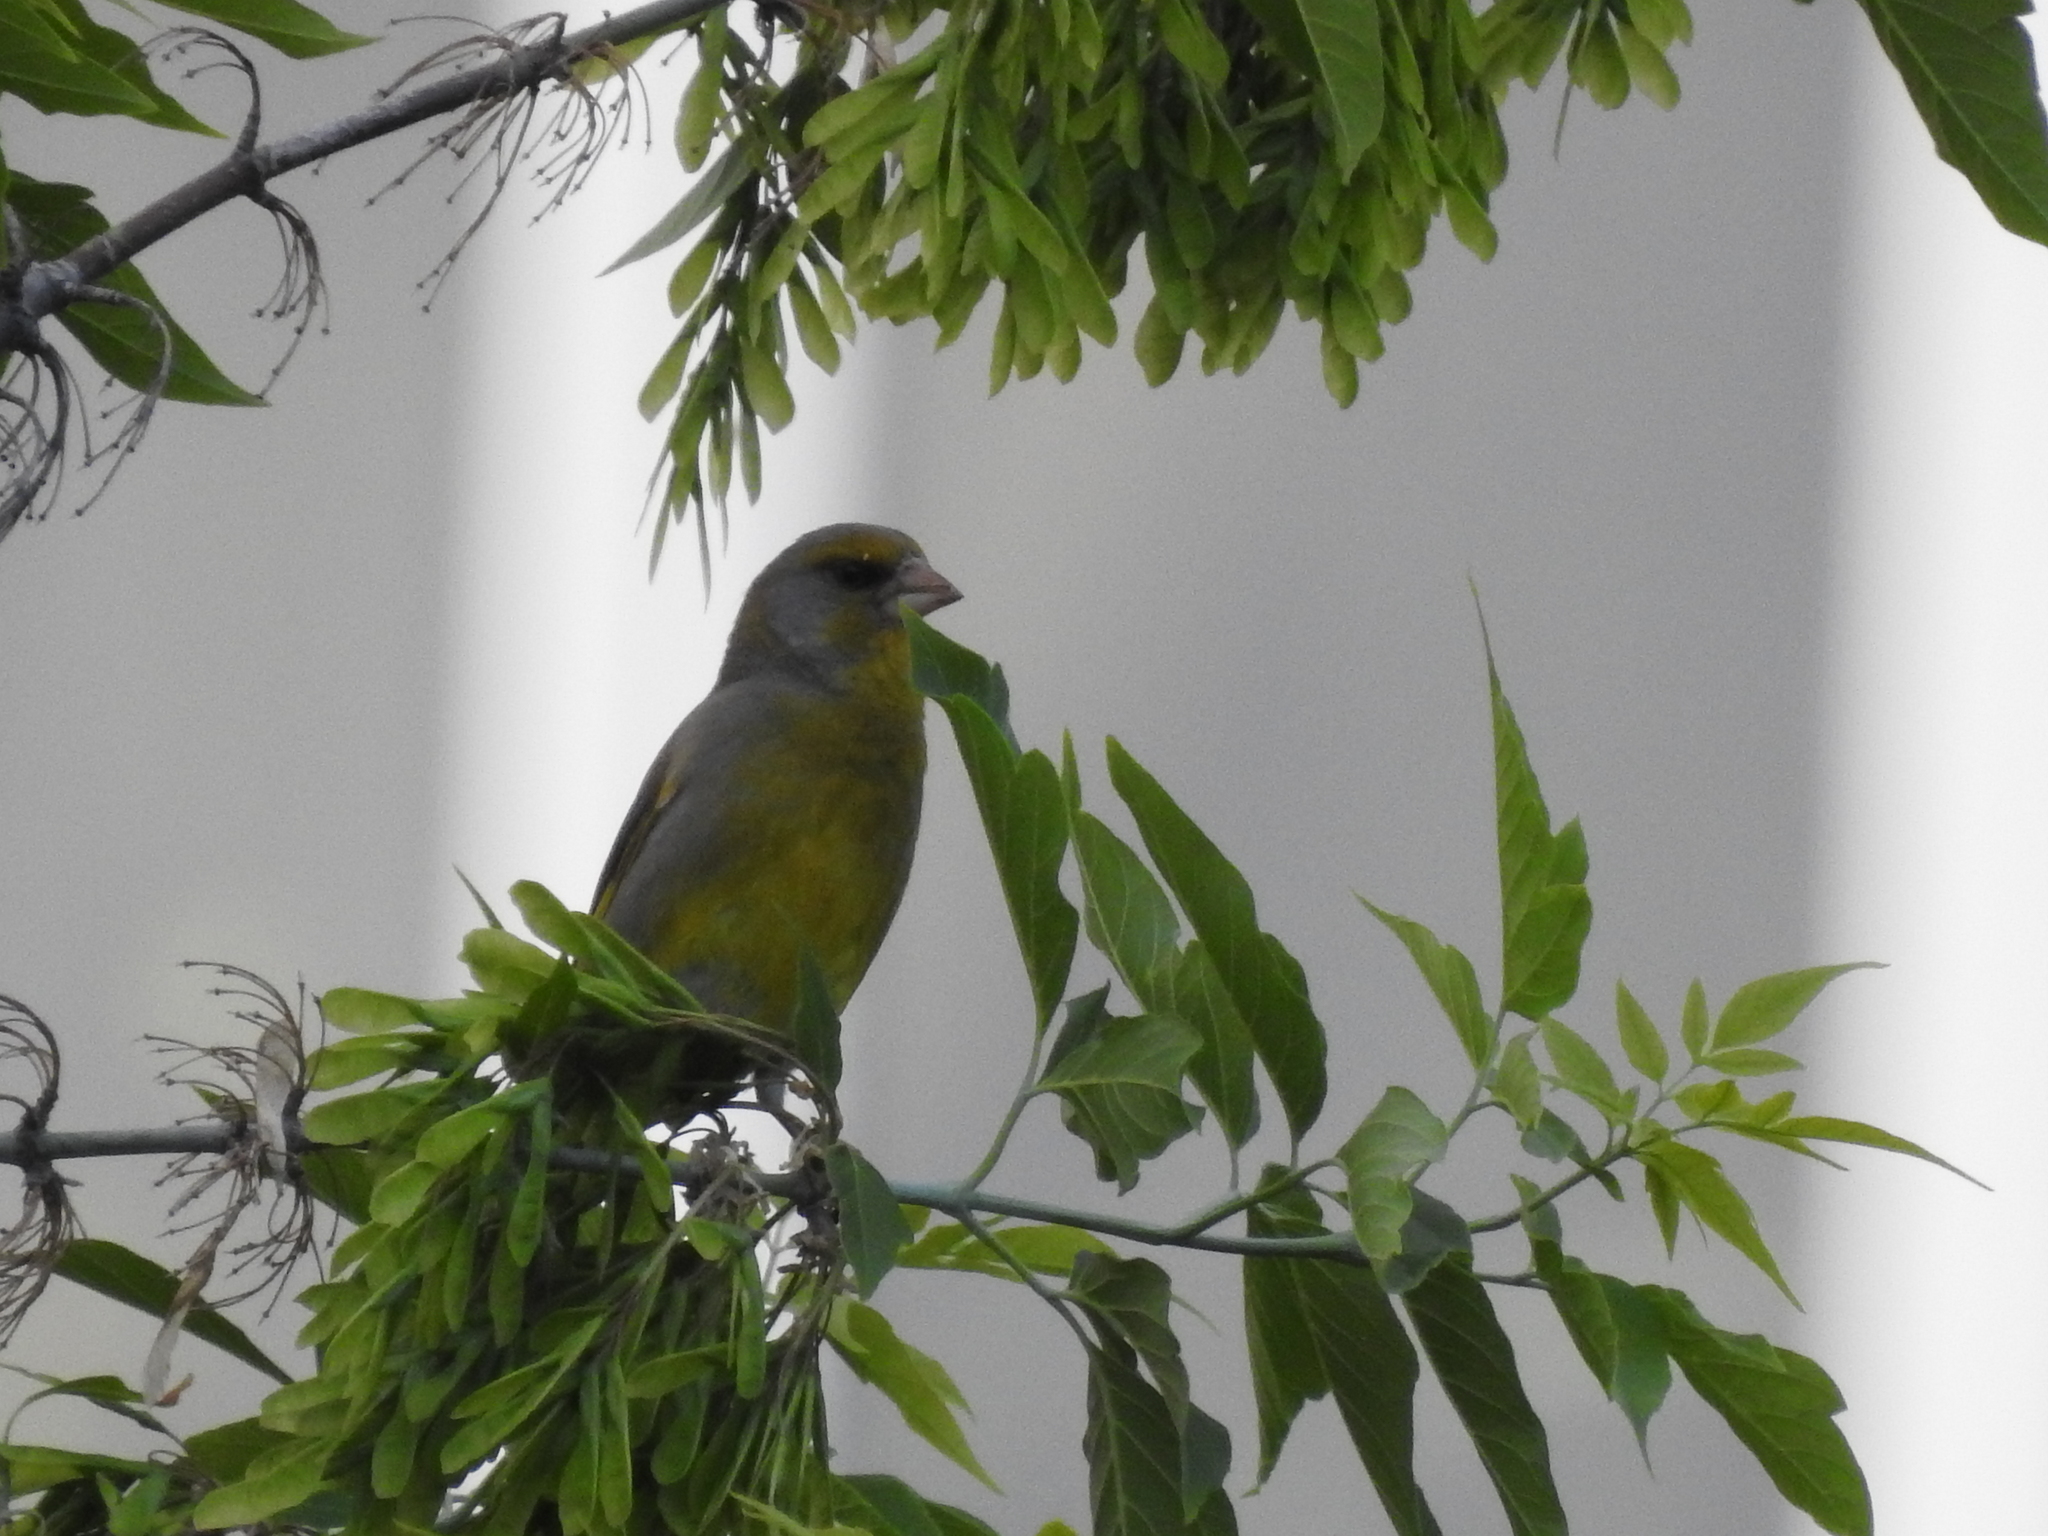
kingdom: Plantae
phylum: Tracheophyta
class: Liliopsida
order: Poales
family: Poaceae
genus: Chloris
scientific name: Chloris chloris
